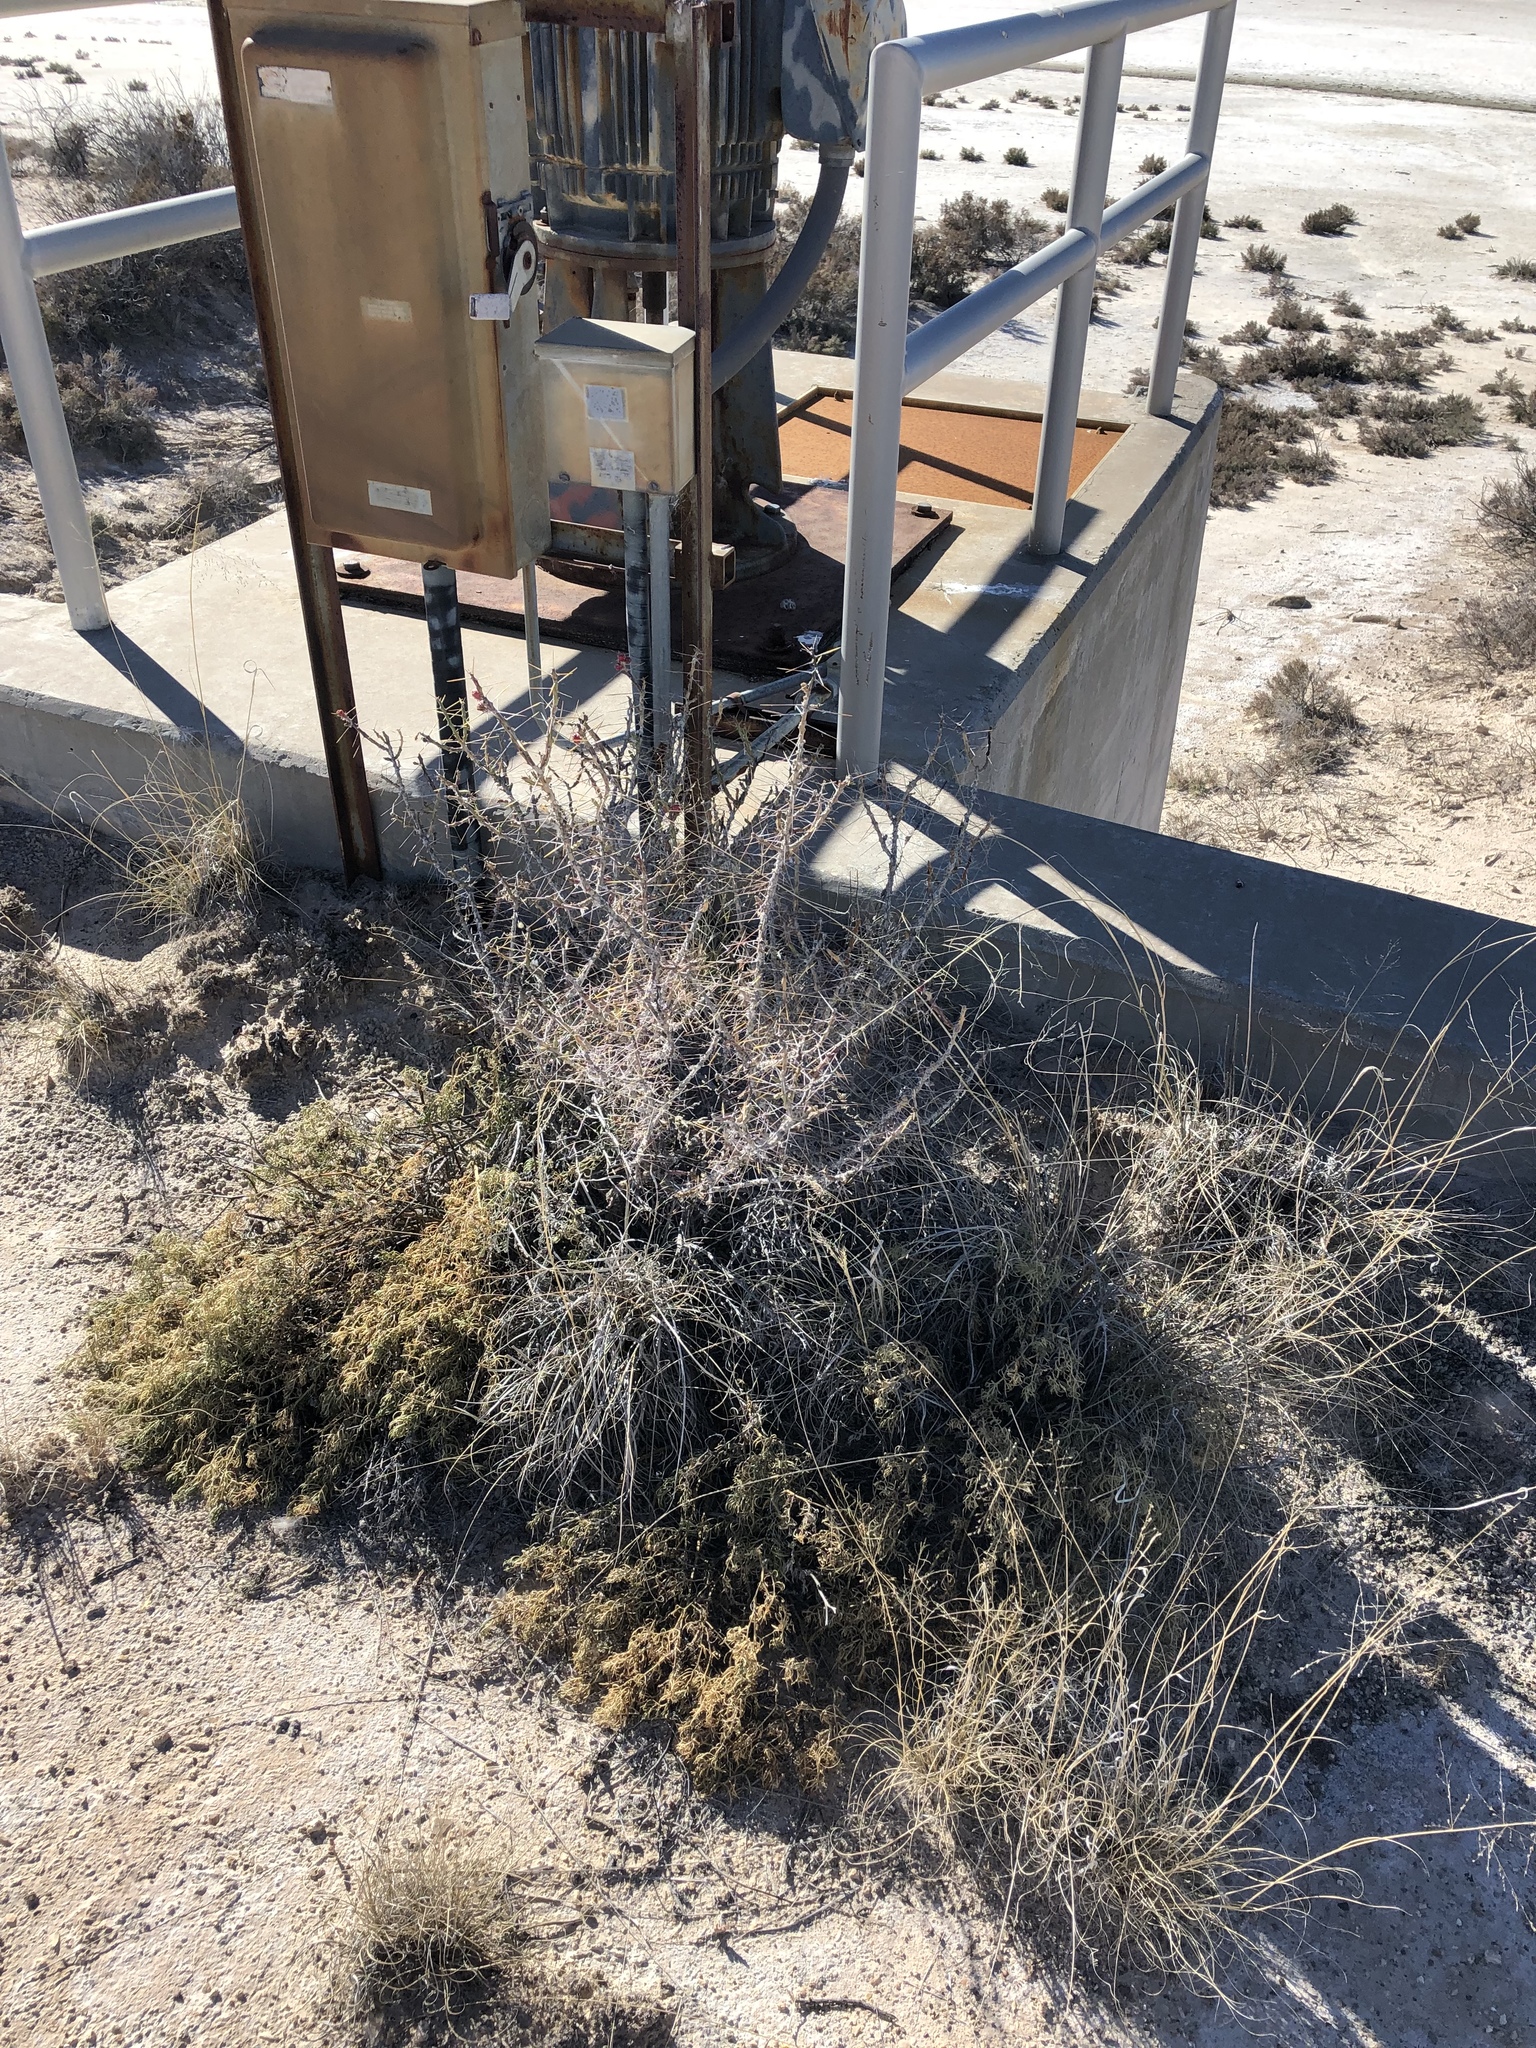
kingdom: Plantae
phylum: Tracheophyta
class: Magnoliopsida
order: Caryophyllales
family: Cactaceae
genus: Cylindropuntia
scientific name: Cylindropuntia leptocaulis
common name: Christmas cactus
